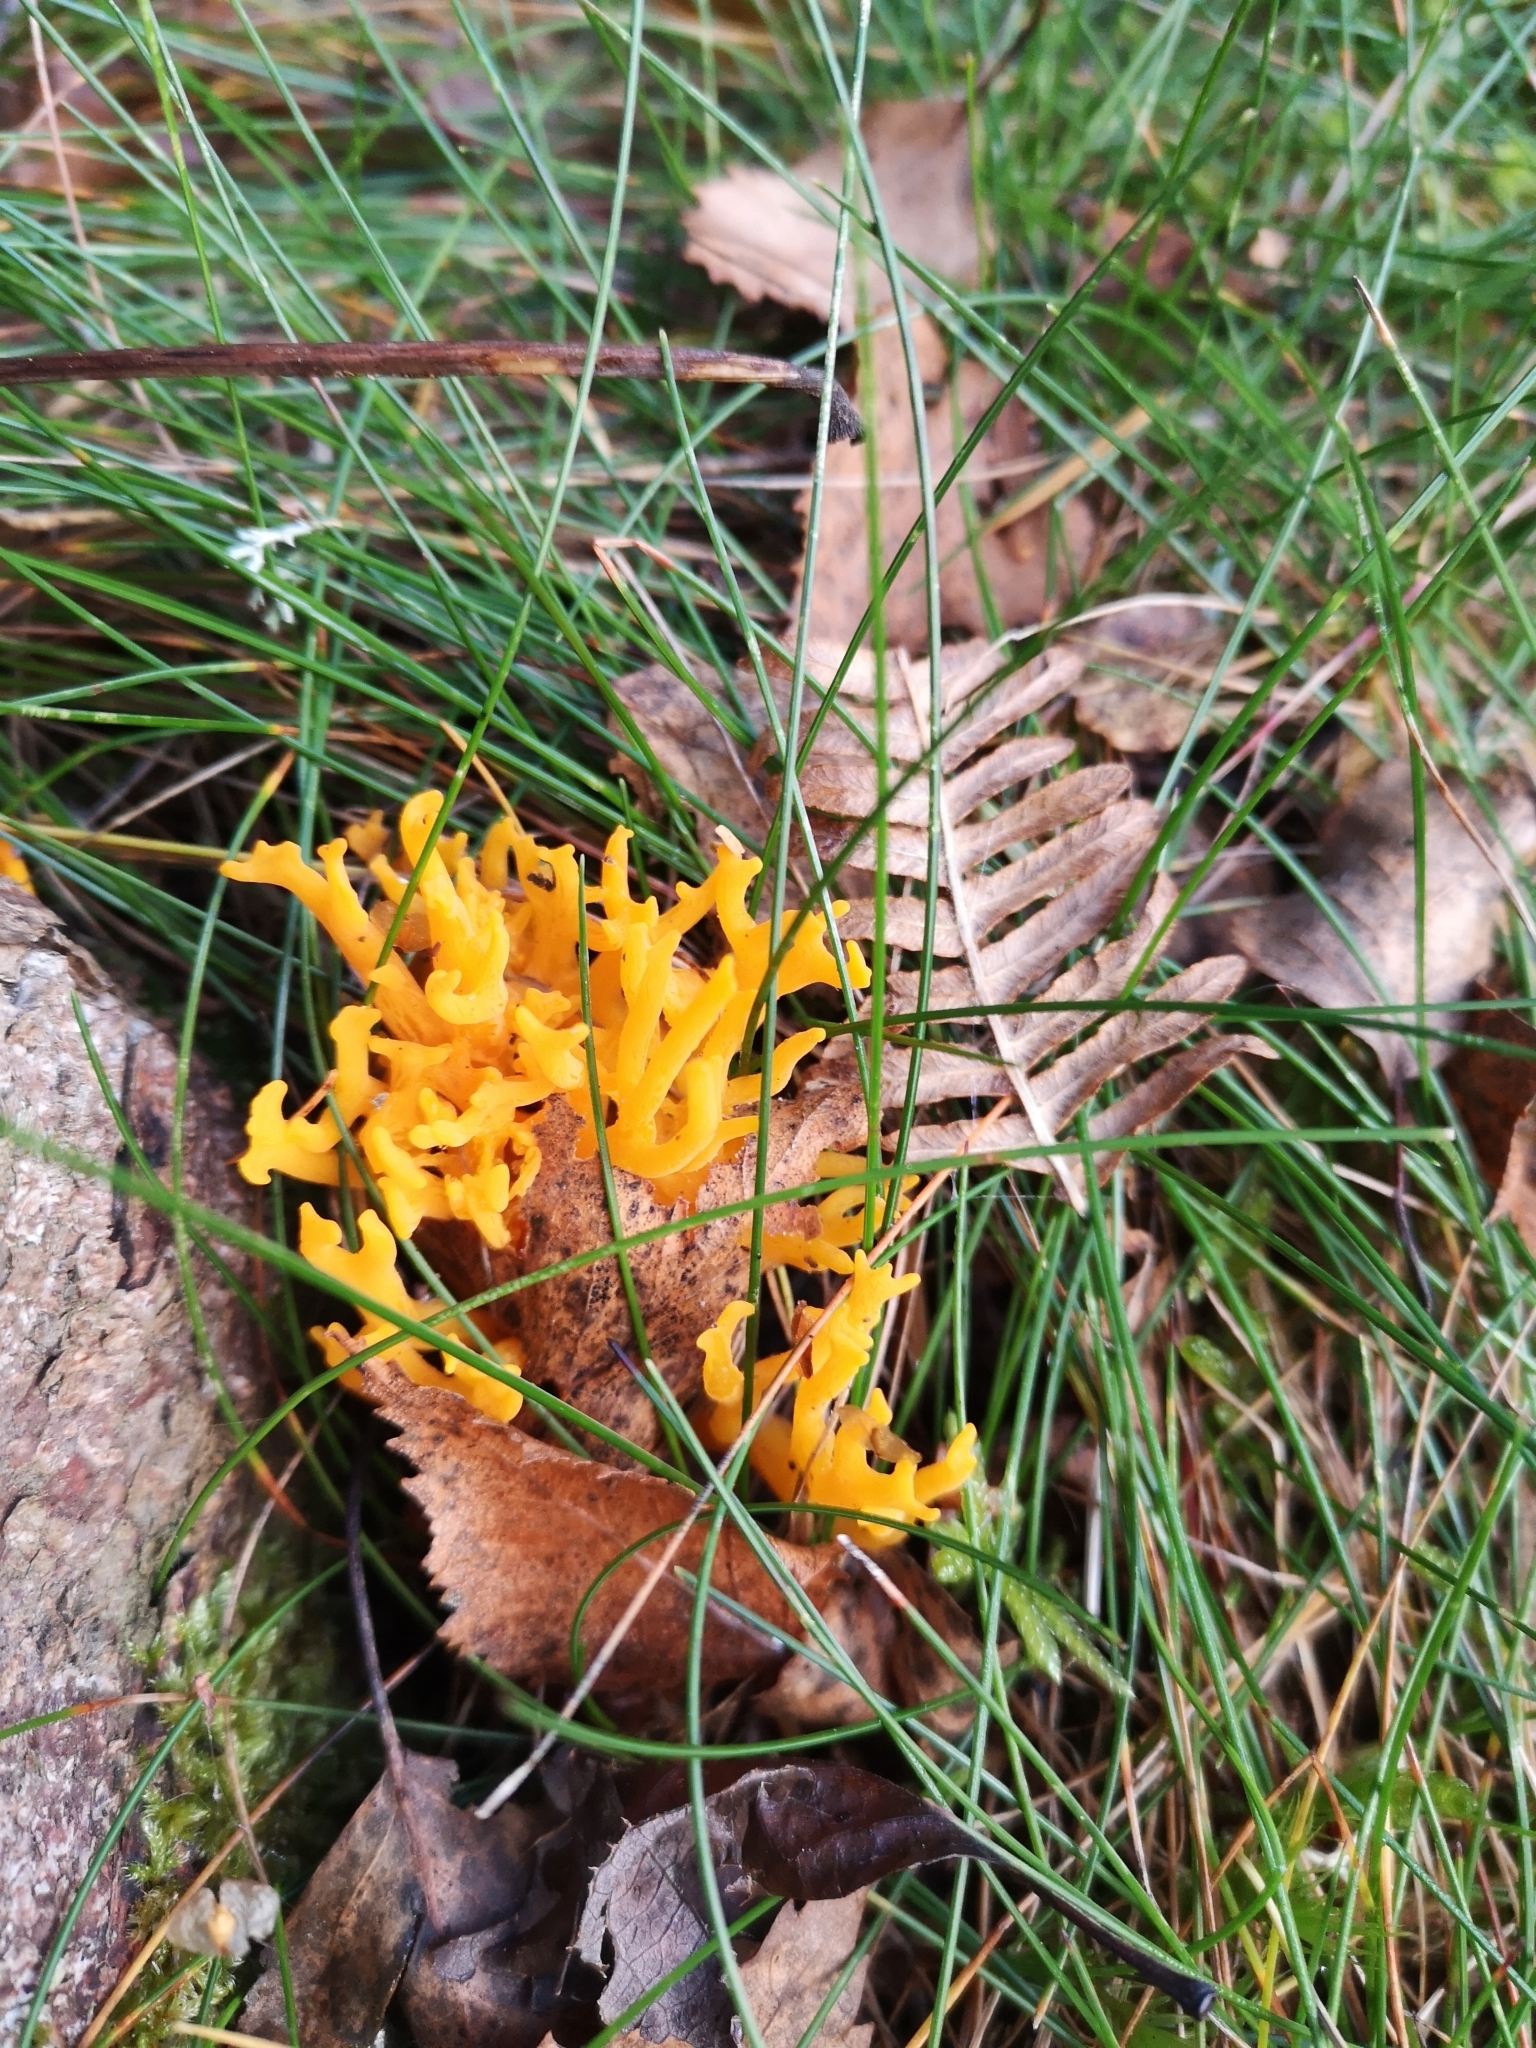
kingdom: Fungi
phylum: Basidiomycota
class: Dacrymycetes
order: Dacrymycetales
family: Dacrymycetaceae
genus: Calocera
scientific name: Calocera viscosa
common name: Yellow stagshorn
